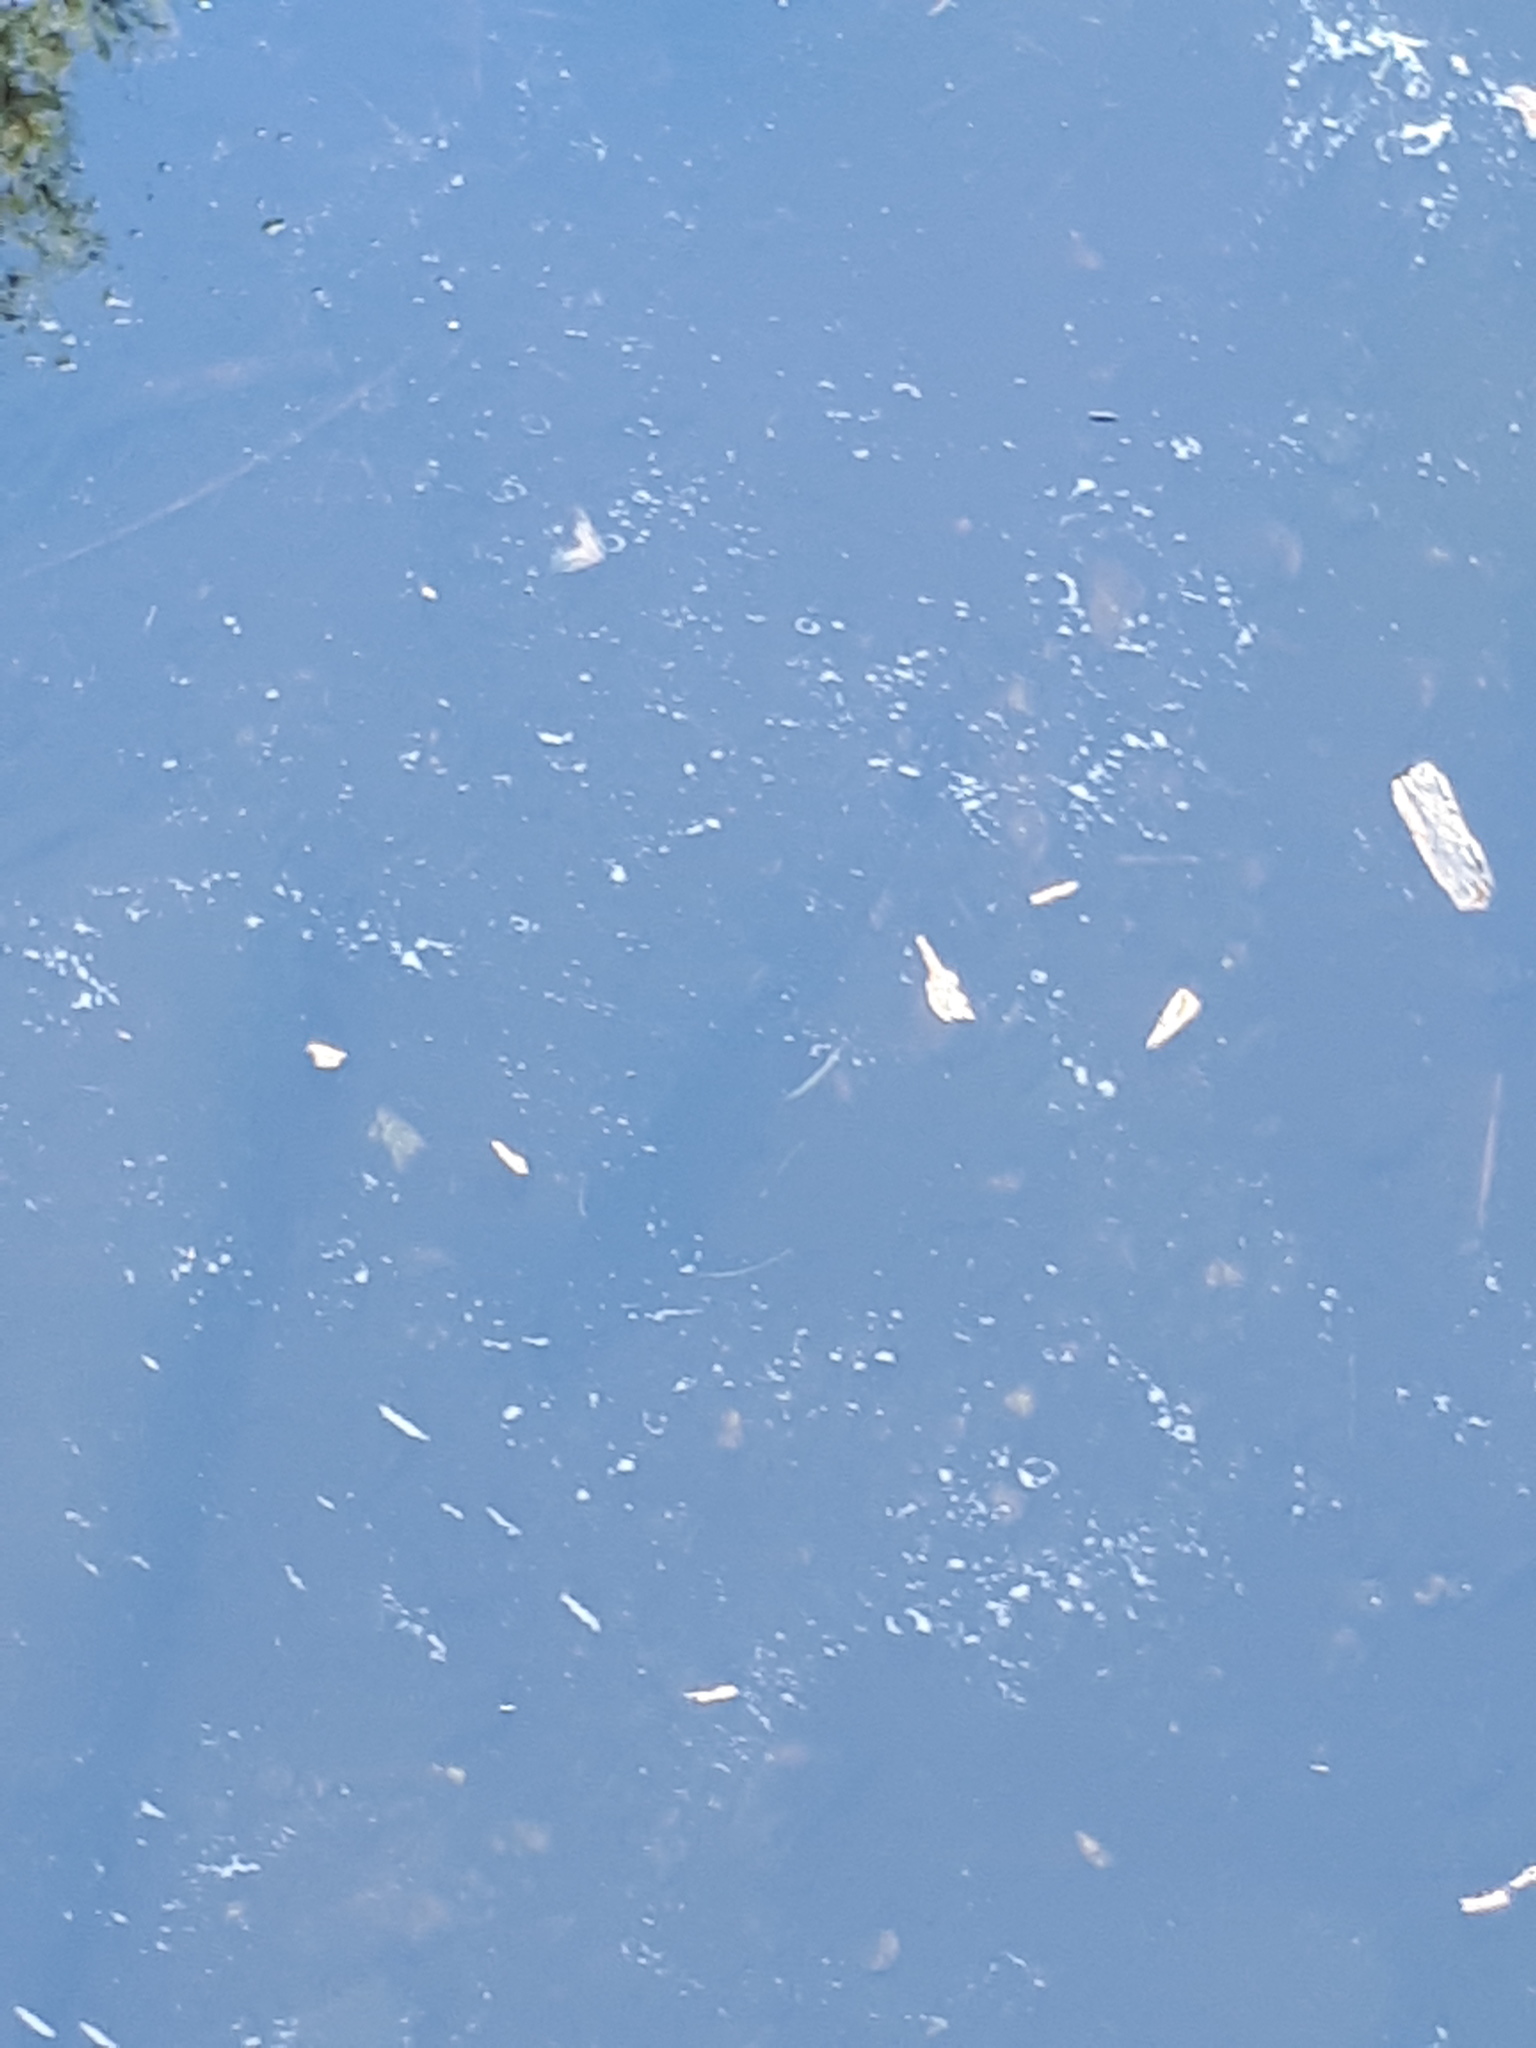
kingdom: Animalia
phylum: Chordata
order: Salmoniformes
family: Salmonidae
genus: Salvelinus
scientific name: Salvelinus fontinalis
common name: Brook trout
